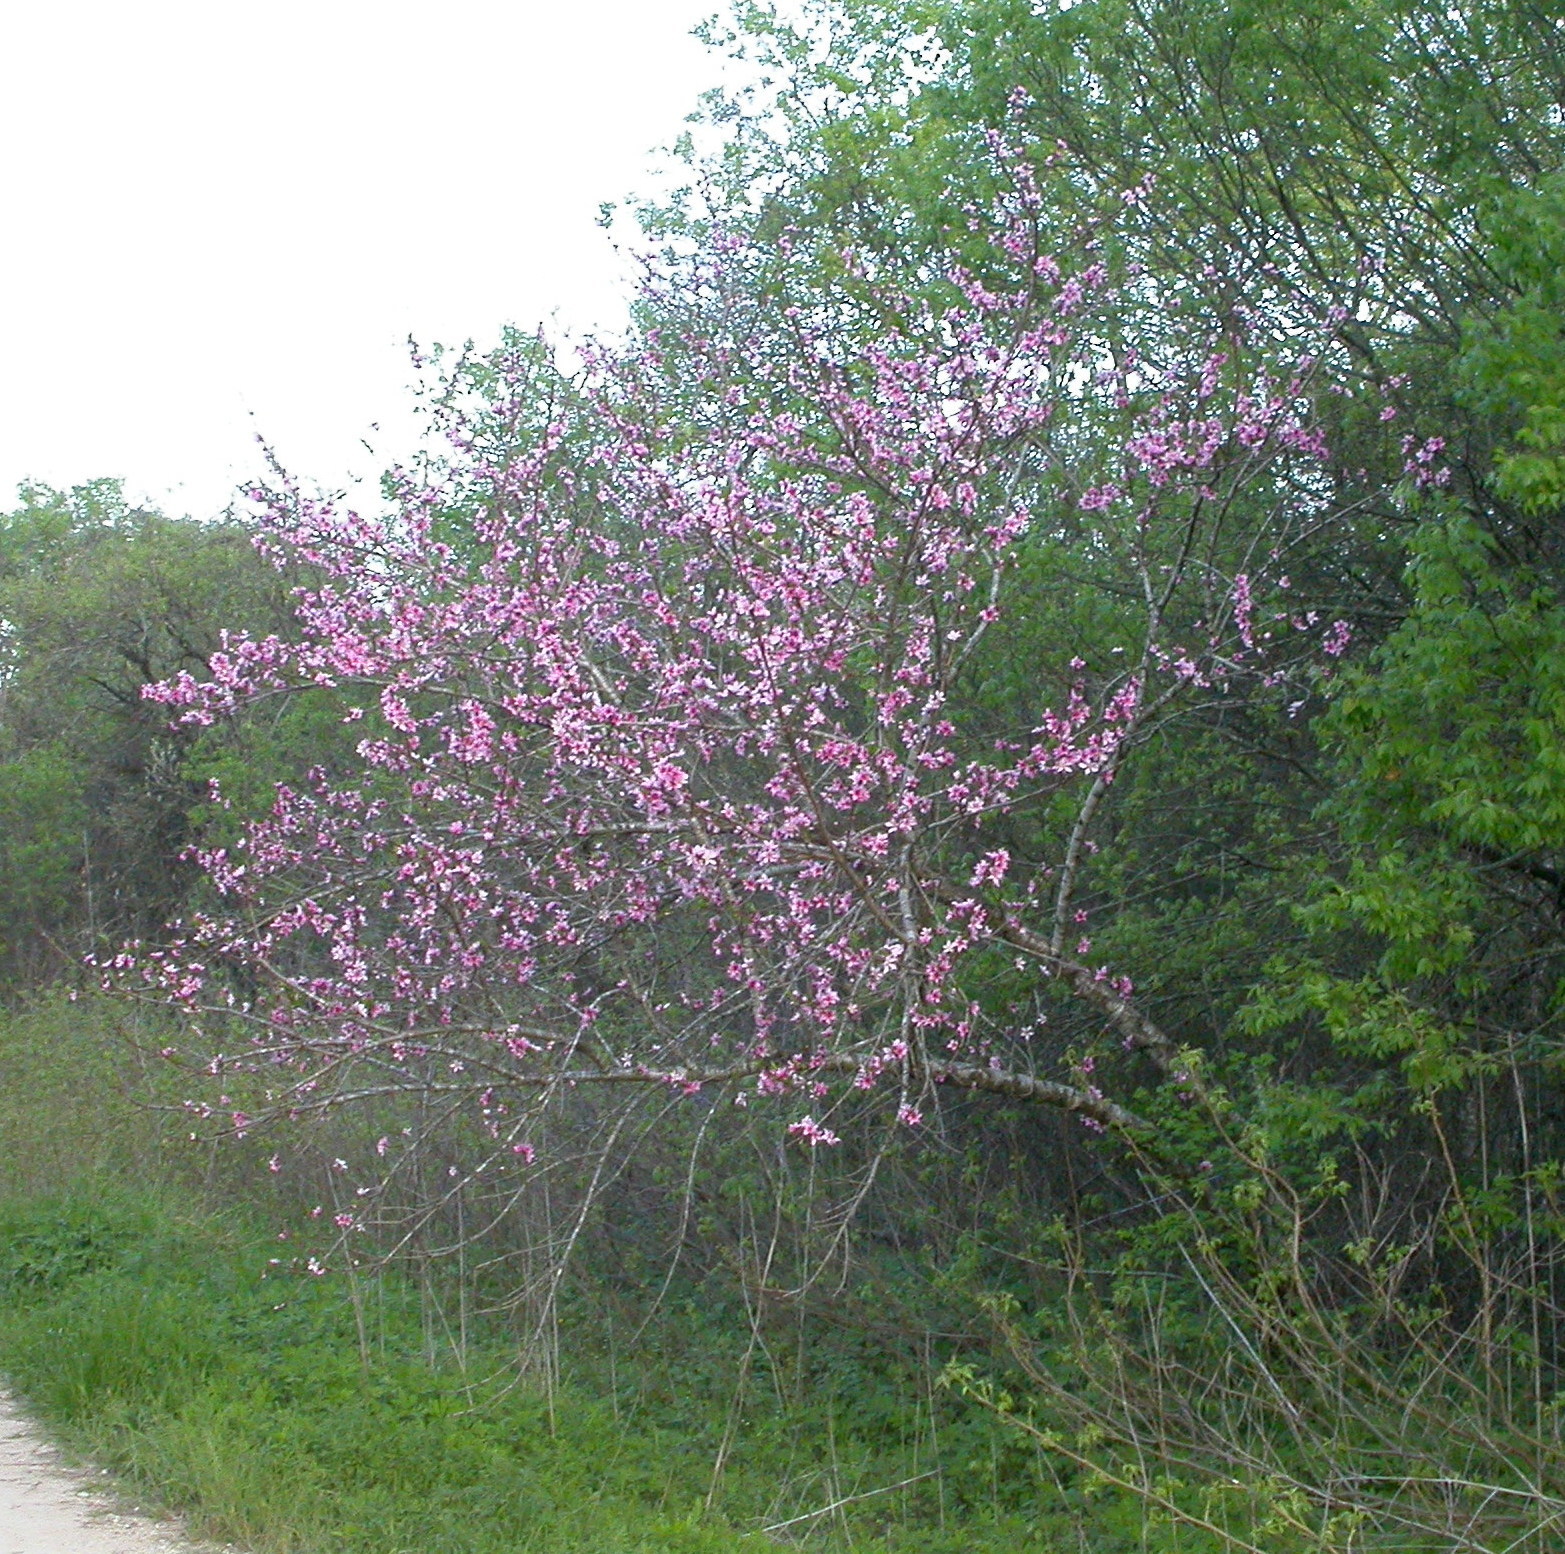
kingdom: Plantae
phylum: Tracheophyta
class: Magnoliopsida
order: Rosales
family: Rosaceae
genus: Prunus
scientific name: Prunus persica
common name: Peach
